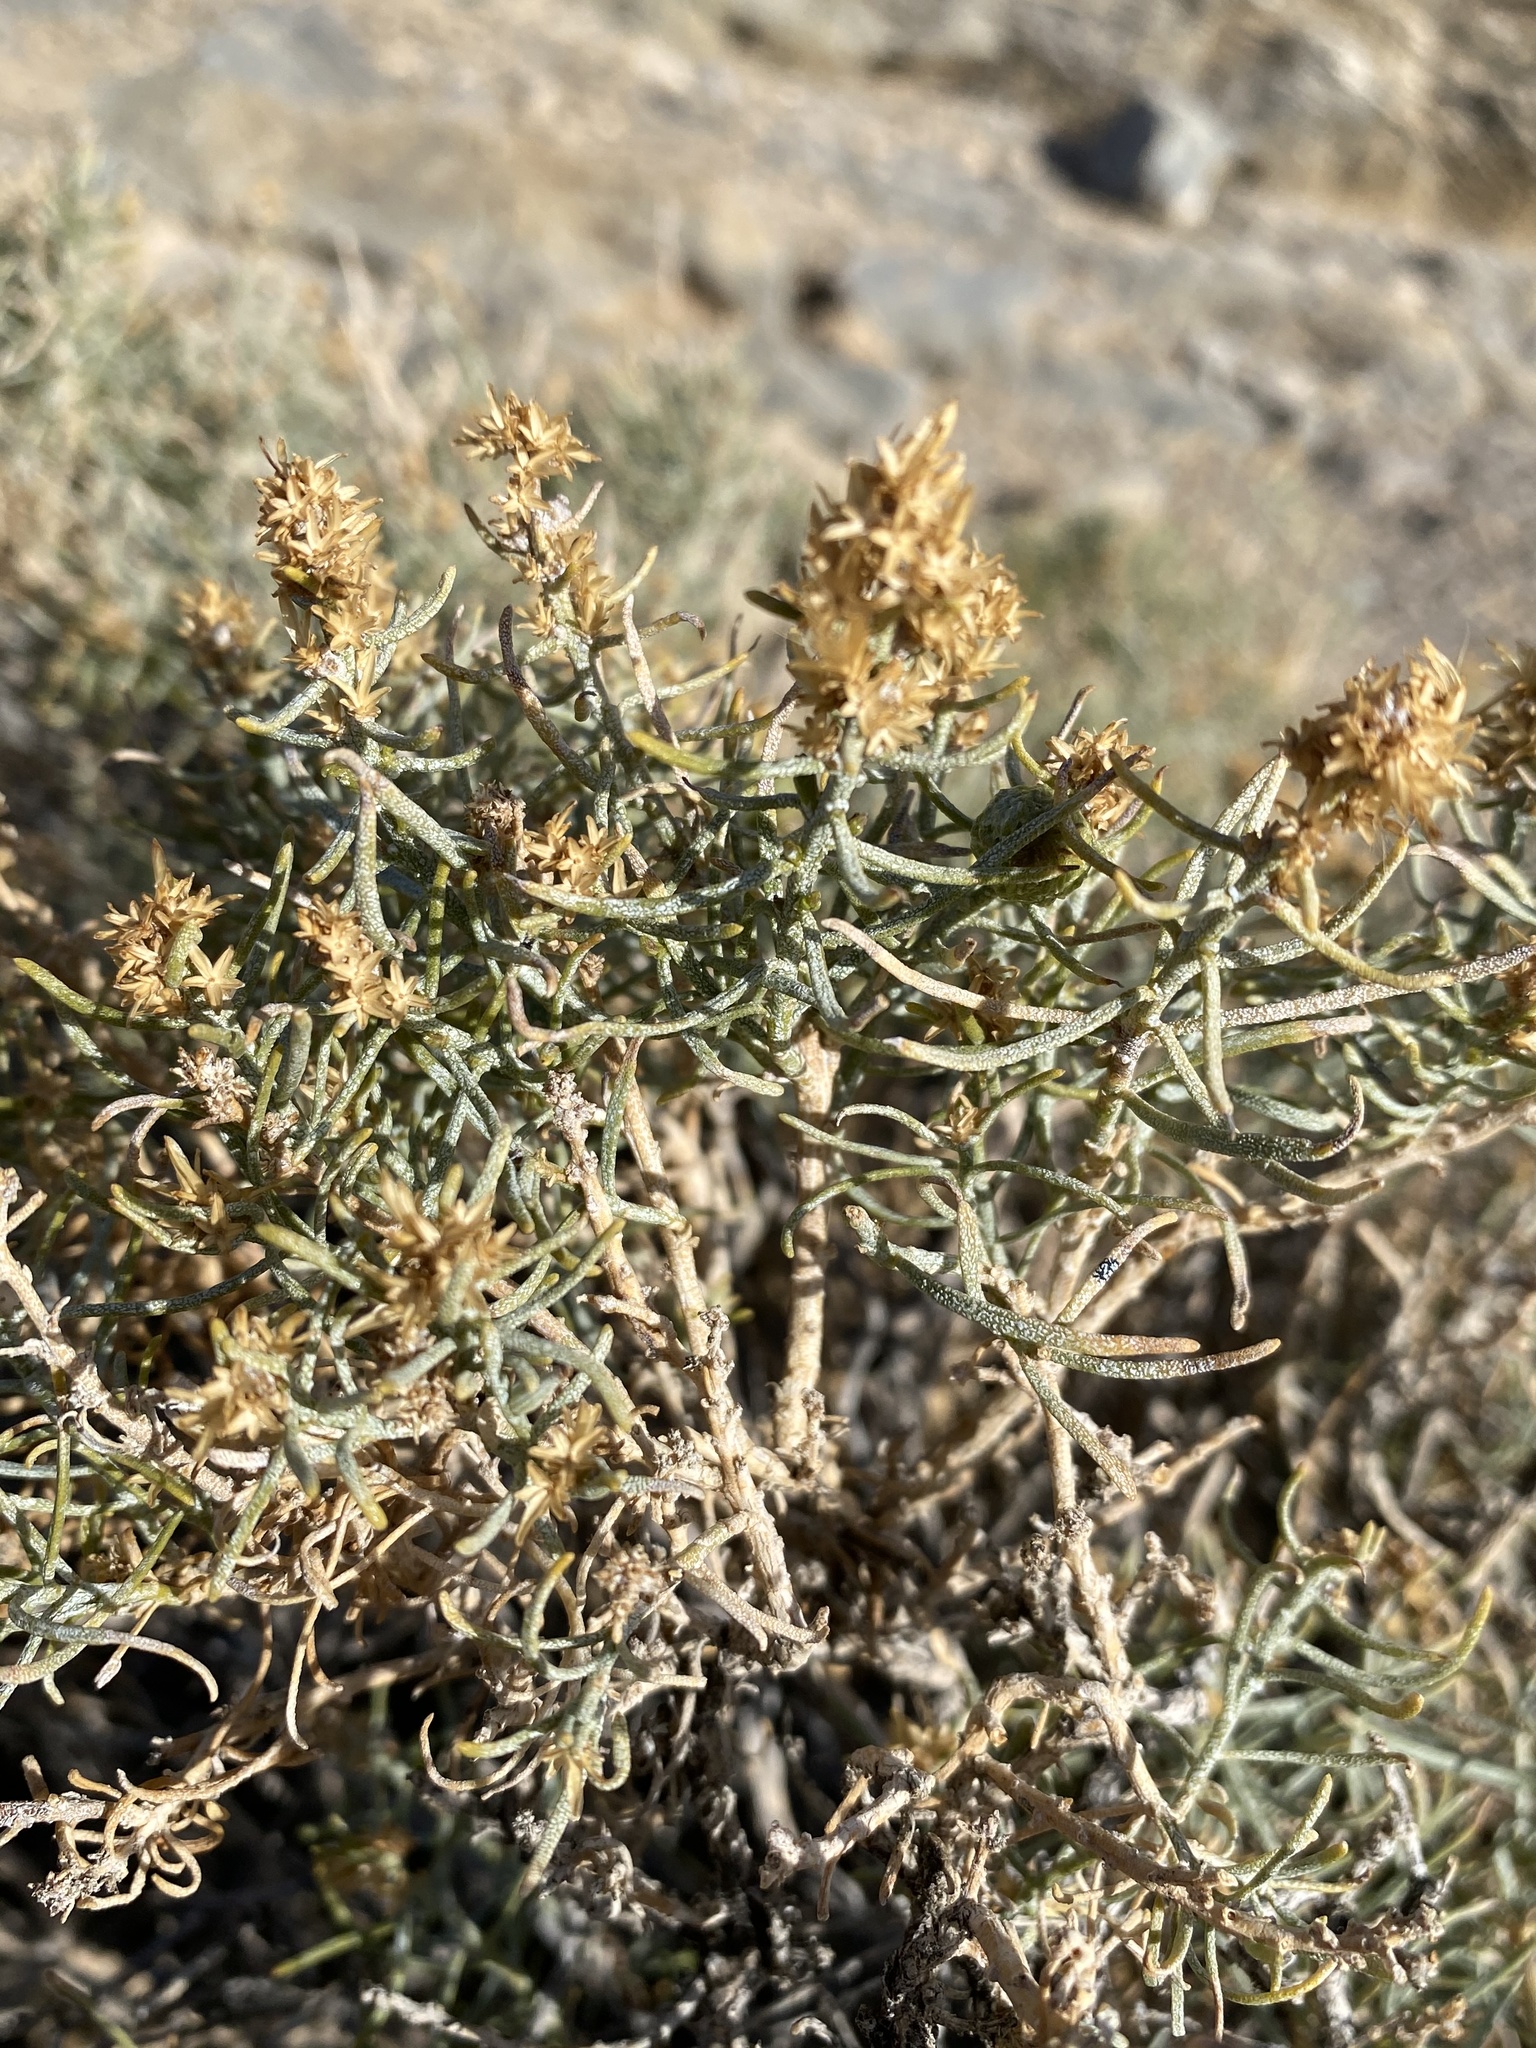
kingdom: Plantae
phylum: Tracheophyta
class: Magnoliopsida
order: Asterales
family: Asteraceae
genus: Ericameria
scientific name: Ericameria teretifolia
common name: Round-leaf rabbitbrush
